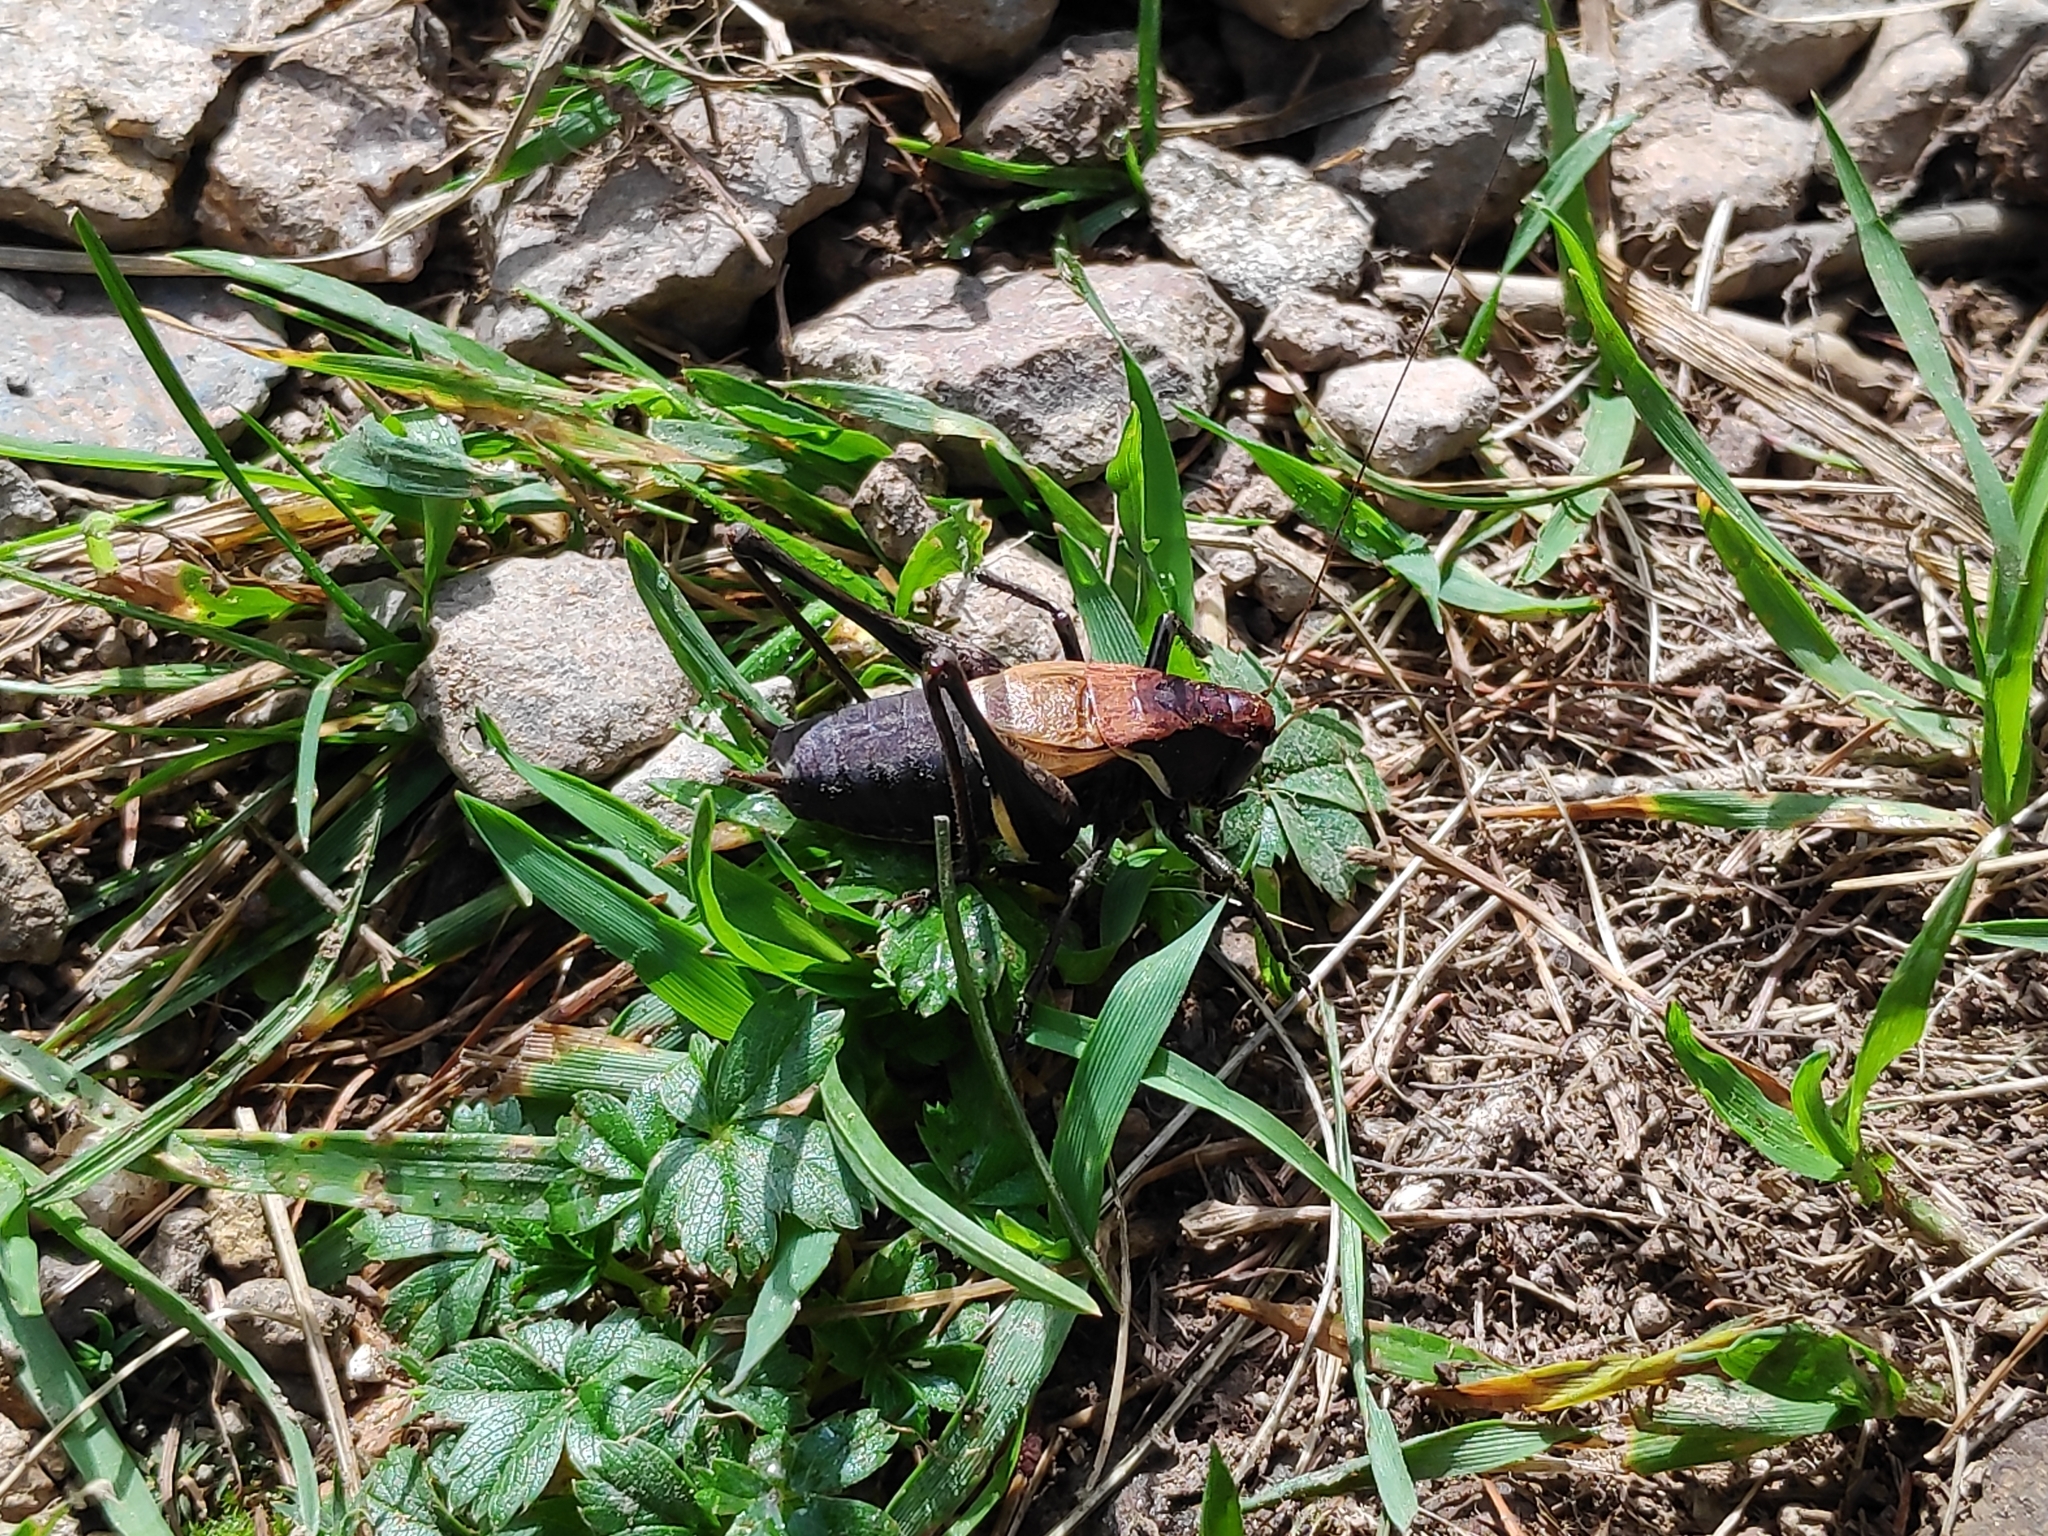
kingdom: Animalia
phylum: Arthropoda
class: Insecta
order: Orthoptera
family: Tettigoniidae
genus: Pholidoptera
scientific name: Pholidoptera aptera
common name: Alpine dark bush-cricket
